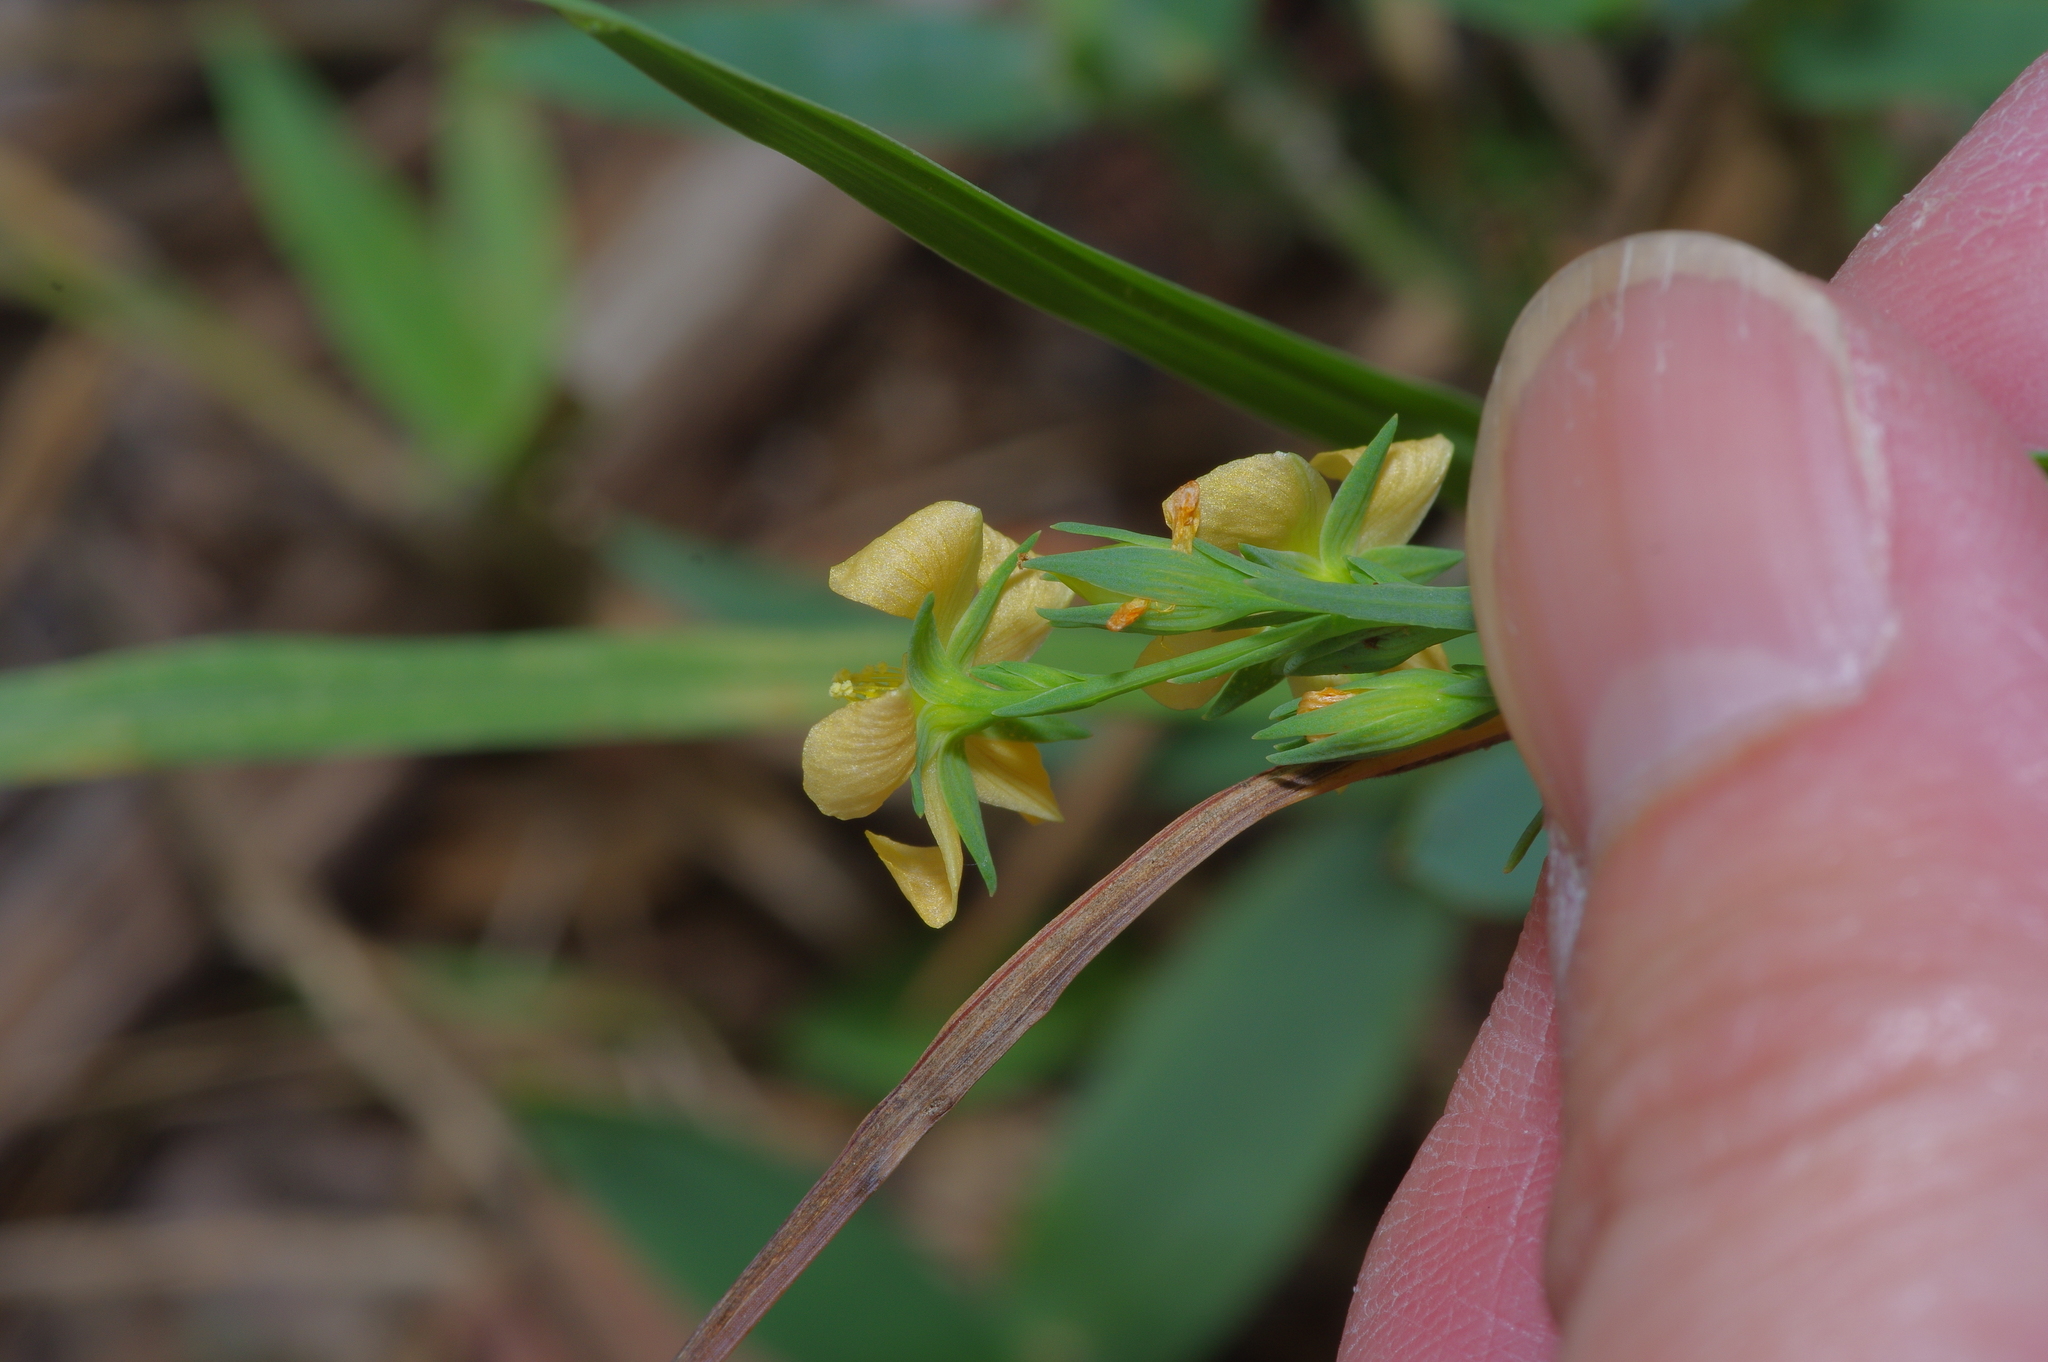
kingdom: Plantae
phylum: Tracheophyta
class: Magnoliopsida
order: Malpighiales
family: Hypericaceae
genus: Hypericum
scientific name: Hypericum drummondii
